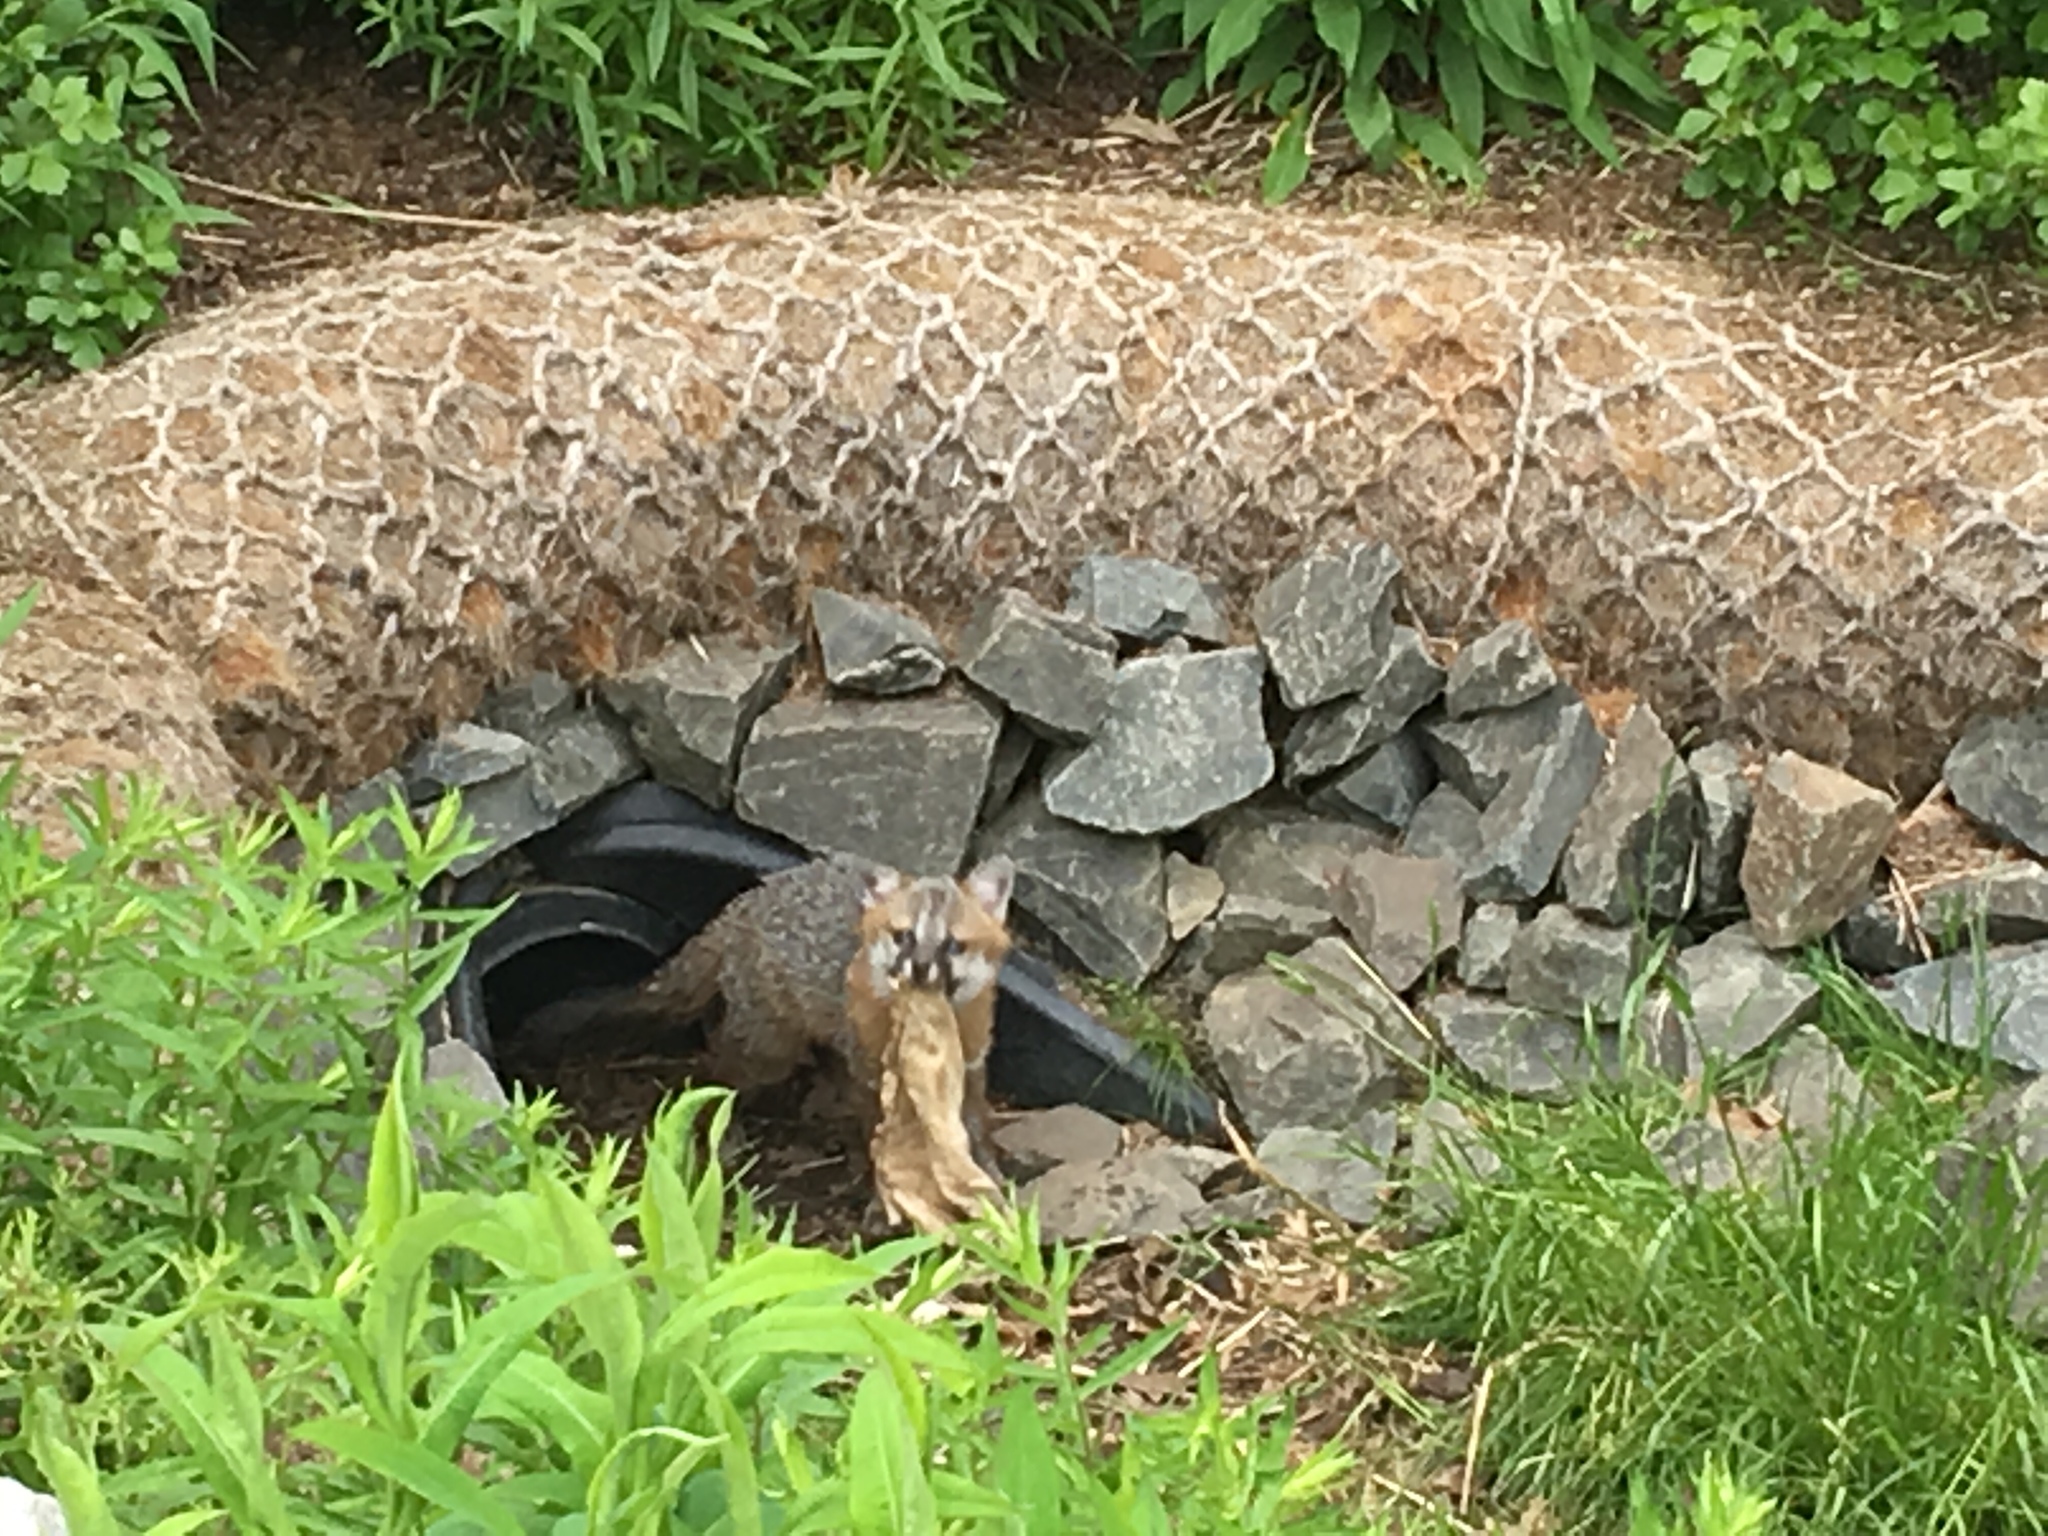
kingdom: Animalia
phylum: Chordata
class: Mammalia
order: Carnivora
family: Canidae
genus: Urocyon
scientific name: Urocyon cinereoargenteus
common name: Gray fox
